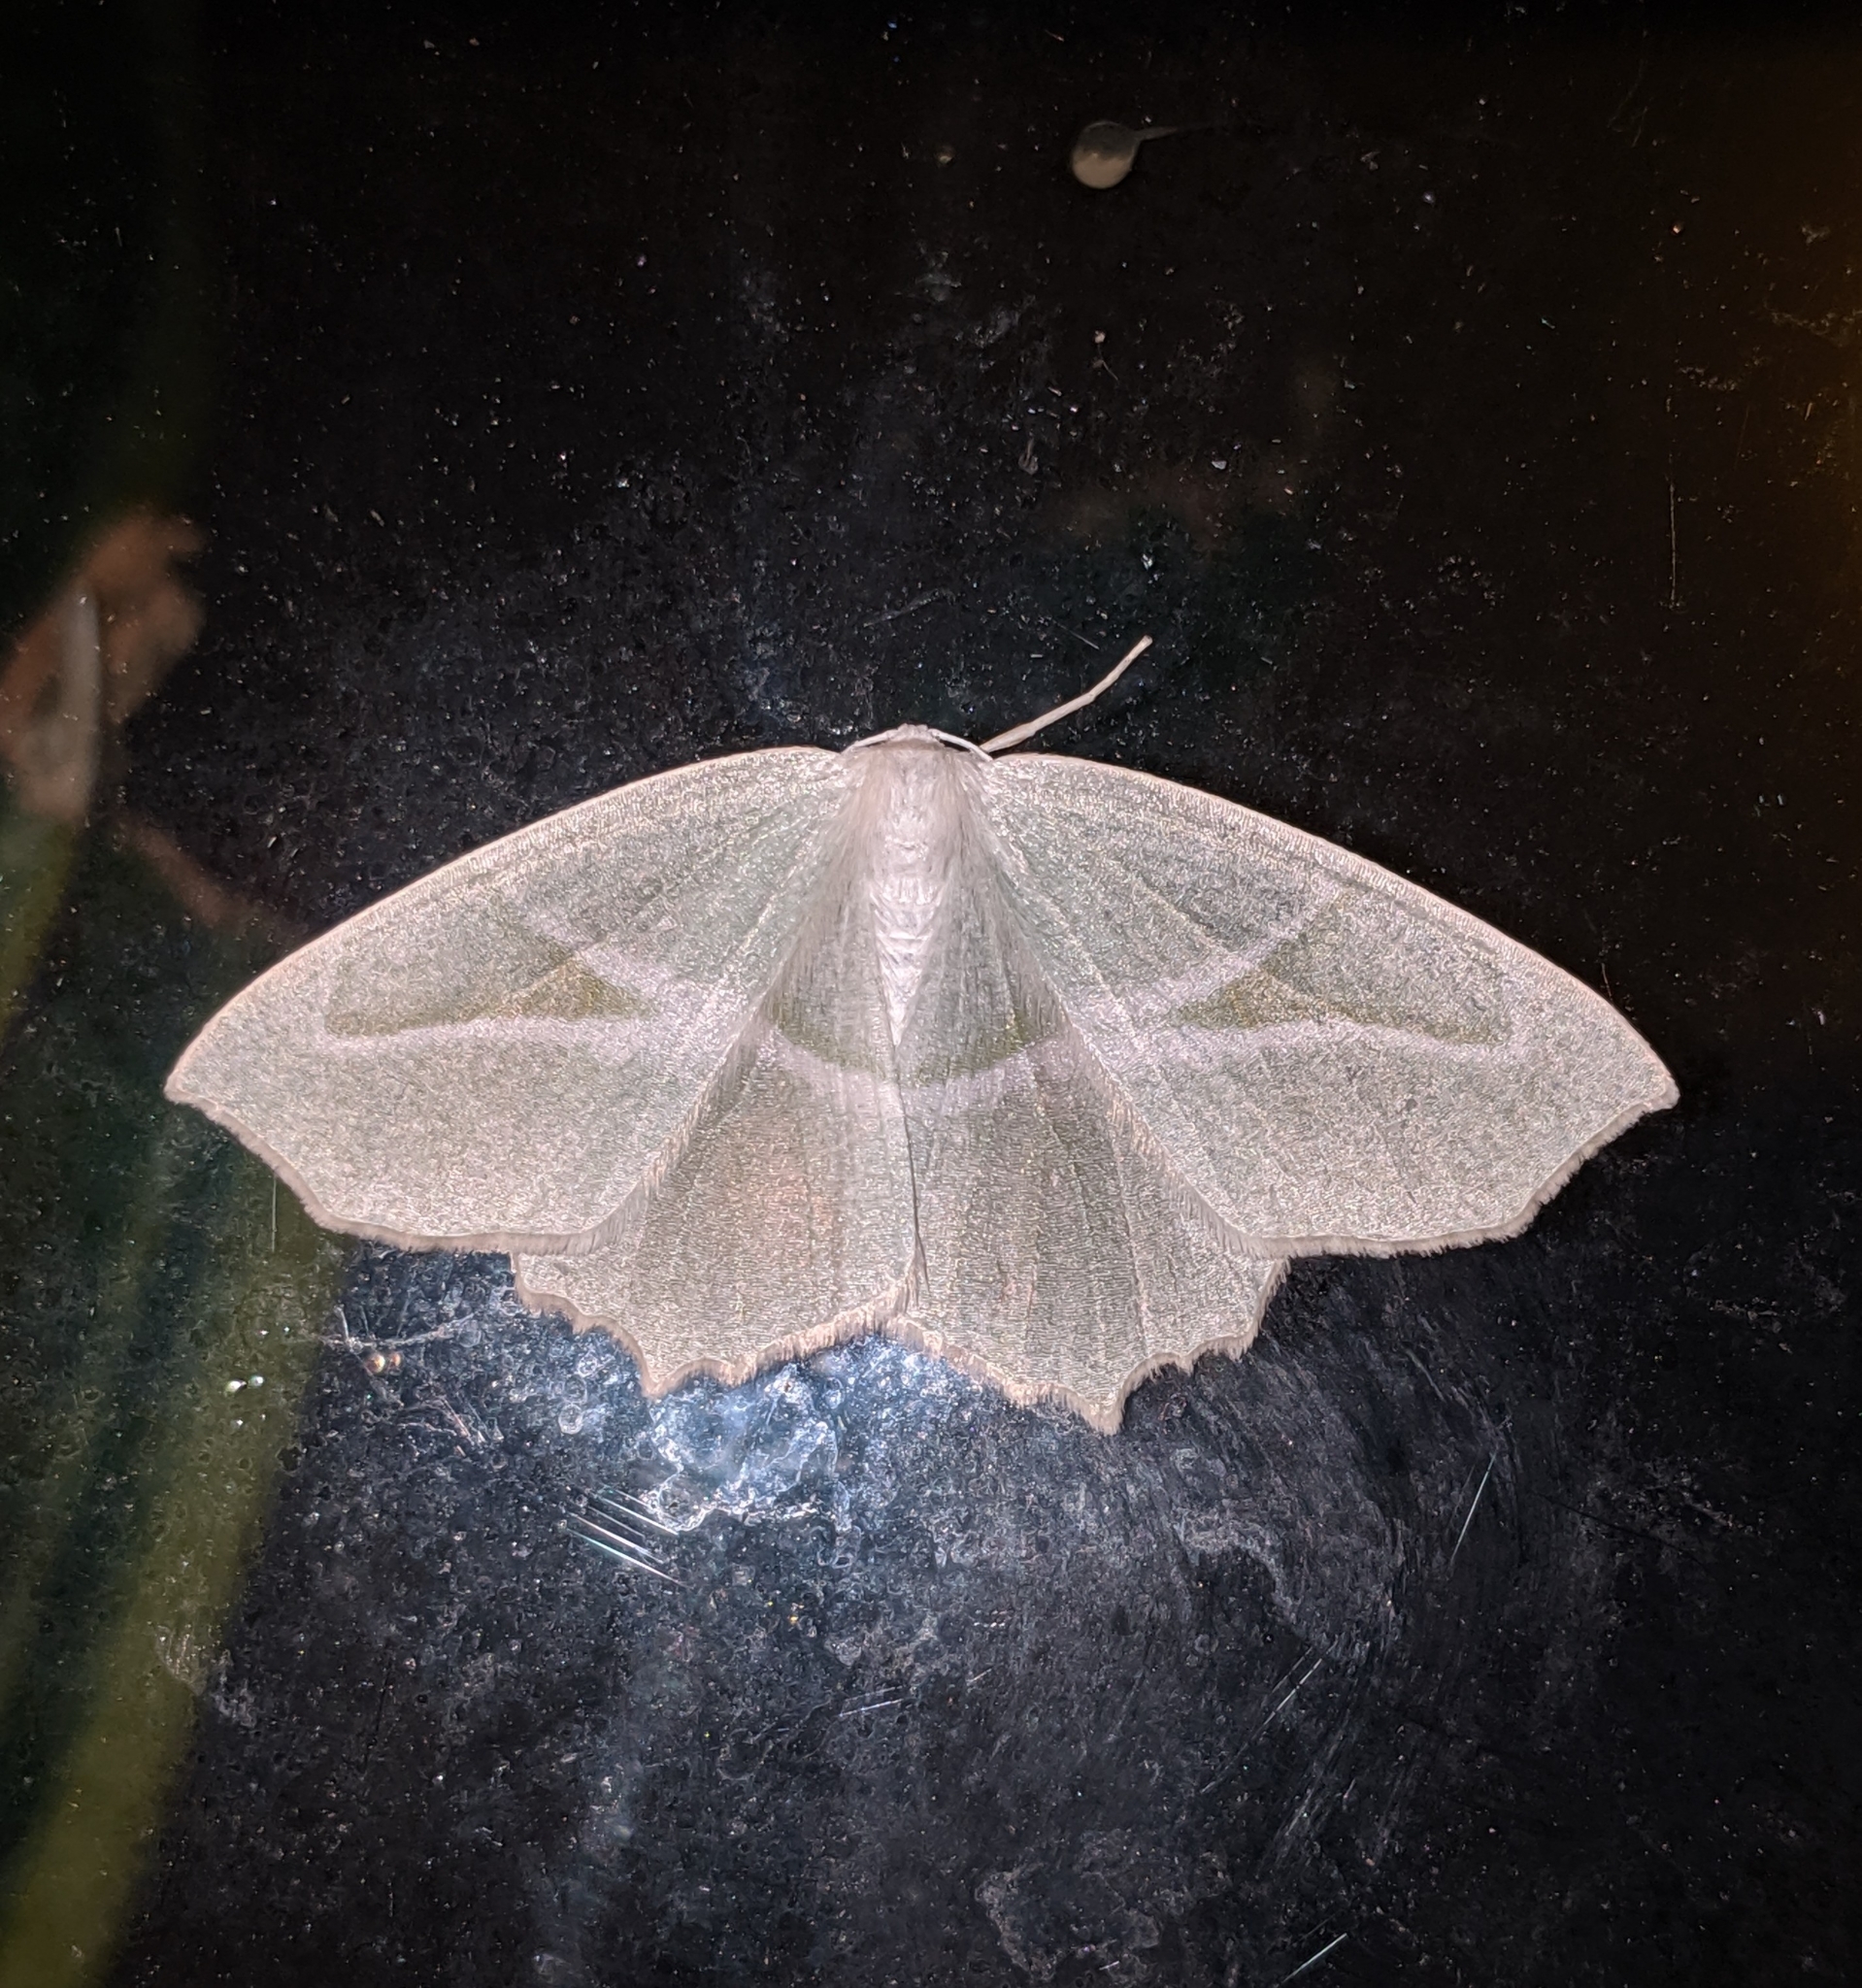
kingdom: Animalia
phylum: Arthropoda
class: Insecta
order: Lepidoptera
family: Geometridae
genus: Campaea
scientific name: Campaea perlata
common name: Fringed looper
